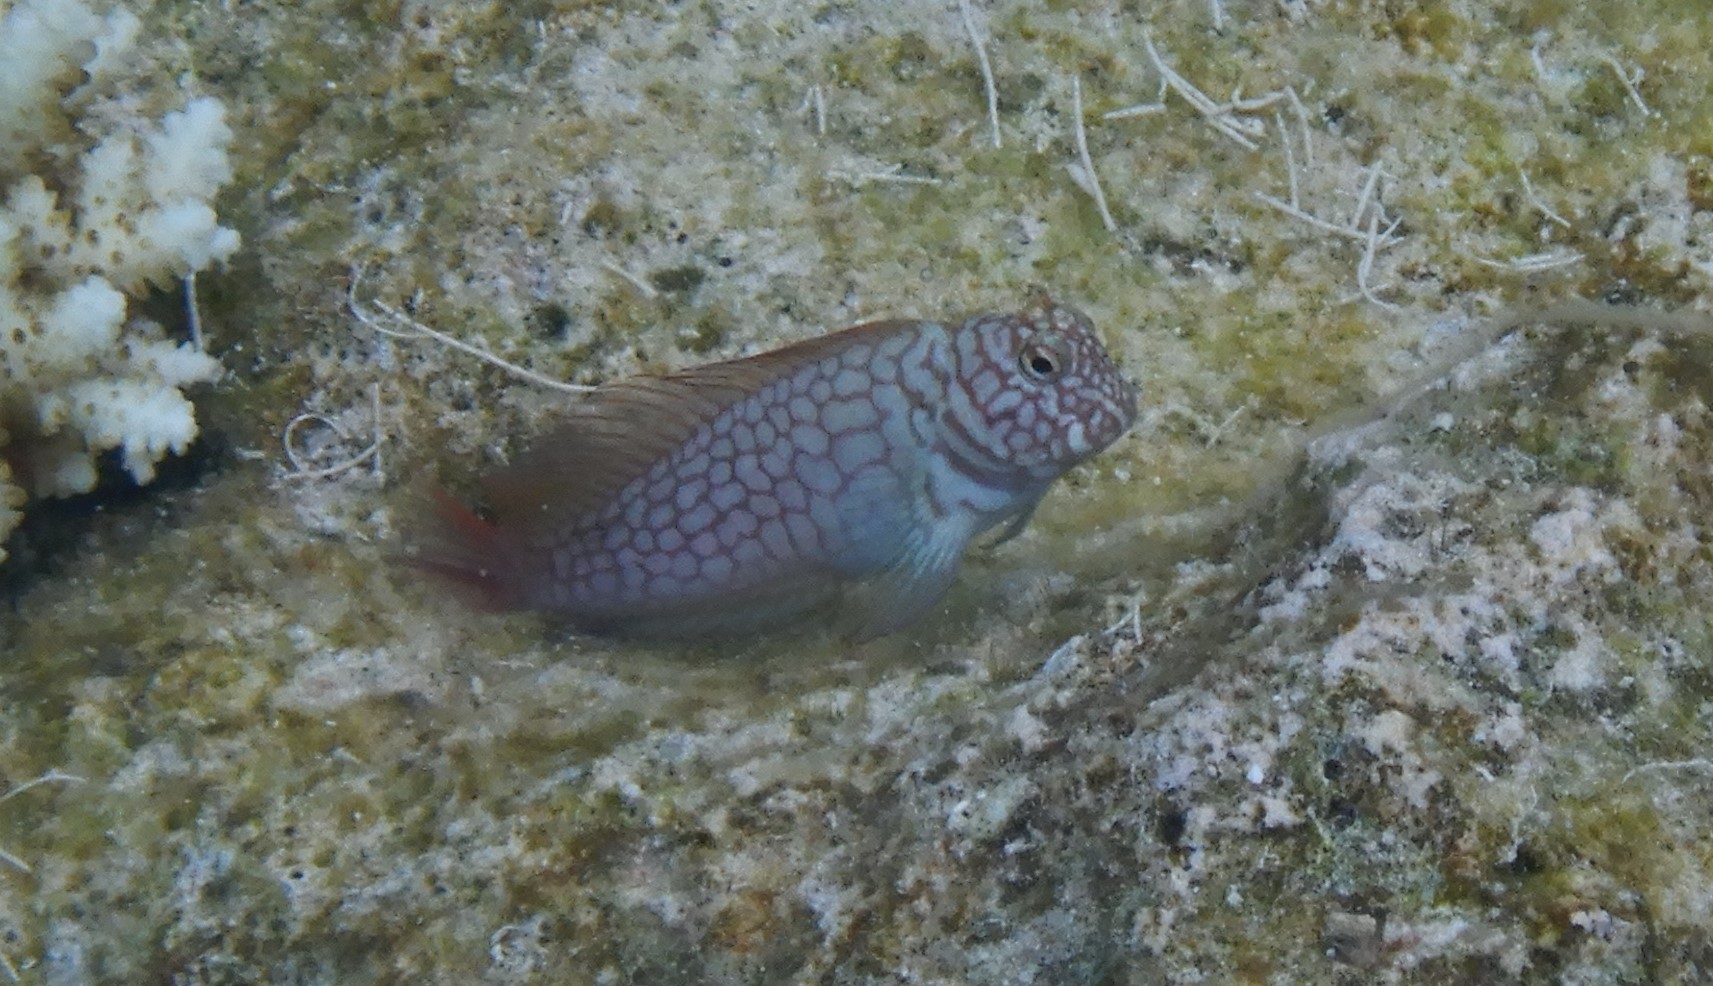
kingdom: Animalia
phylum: Chordata
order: Perciformes
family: Blenniidae
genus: Cirripectes
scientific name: Cirripectes stigmaticus
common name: Red-streaked blenny
